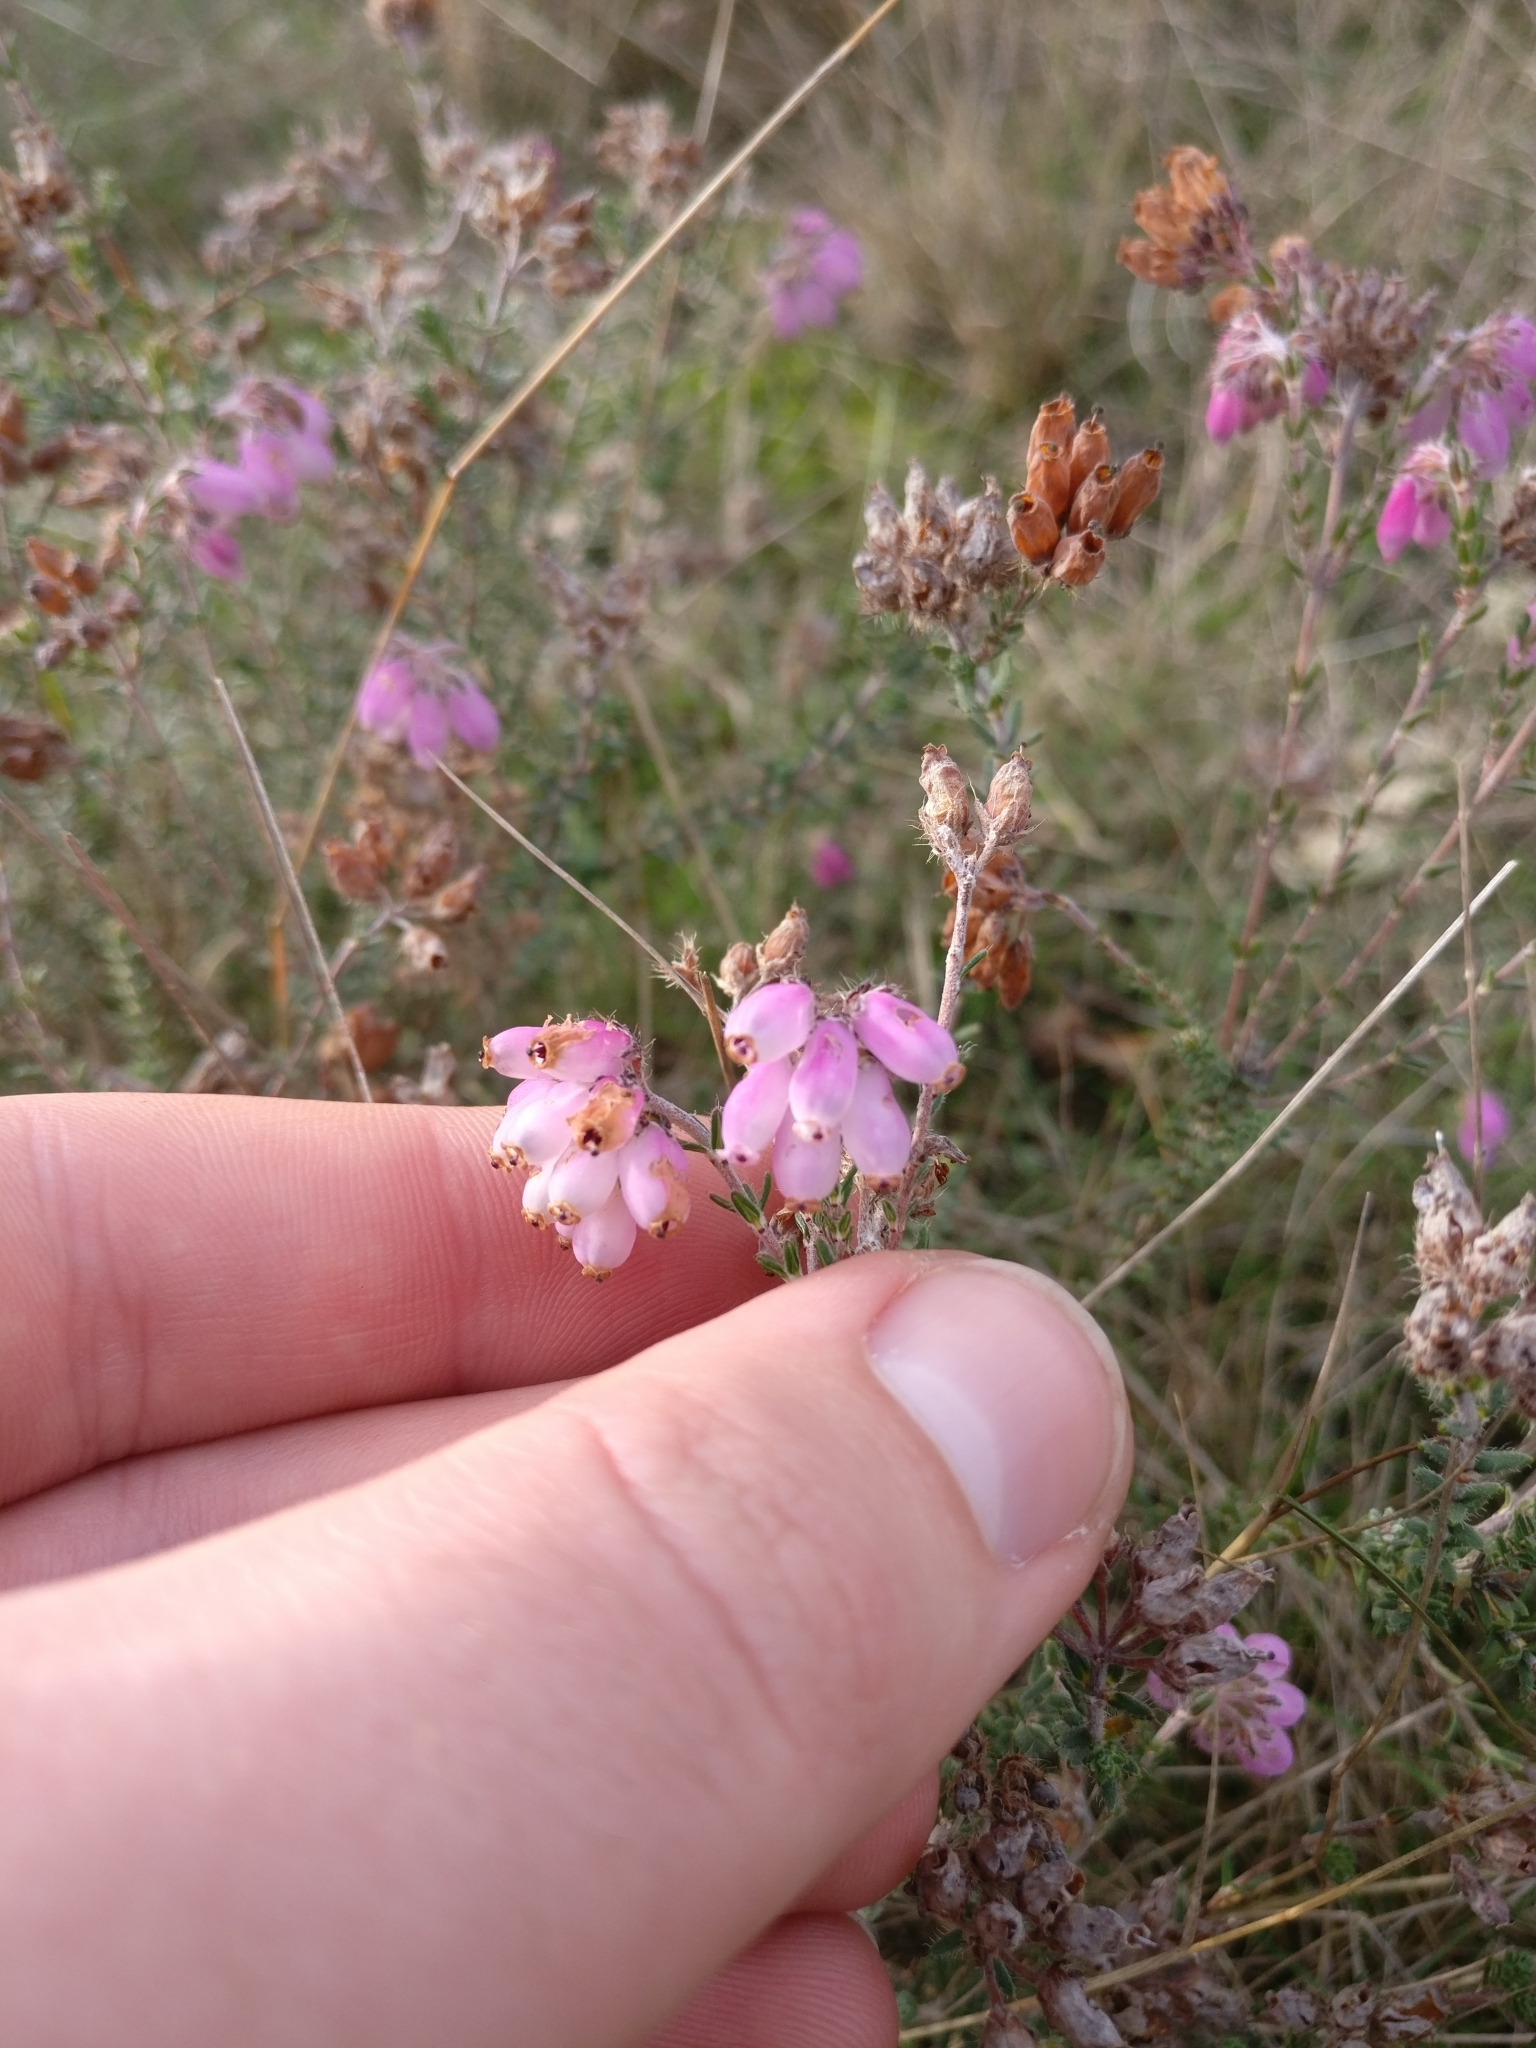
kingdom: Plantae
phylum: Tracheophyta
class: Magnoliopsida
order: Ericales
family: Ericaceae
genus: Erica
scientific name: Erica tetralix
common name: Cross-leaved heath
